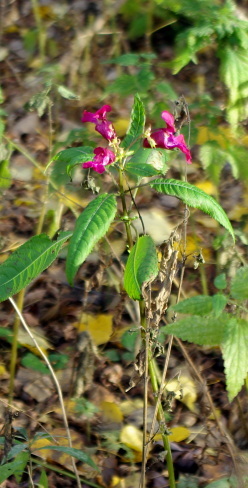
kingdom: Plantae
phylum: Tracheophyta
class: Magnoliopsida
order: Ericales
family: Balsaminaceae
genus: Impatiens
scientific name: Impatiens glandulifera
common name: Himalayan balsam
